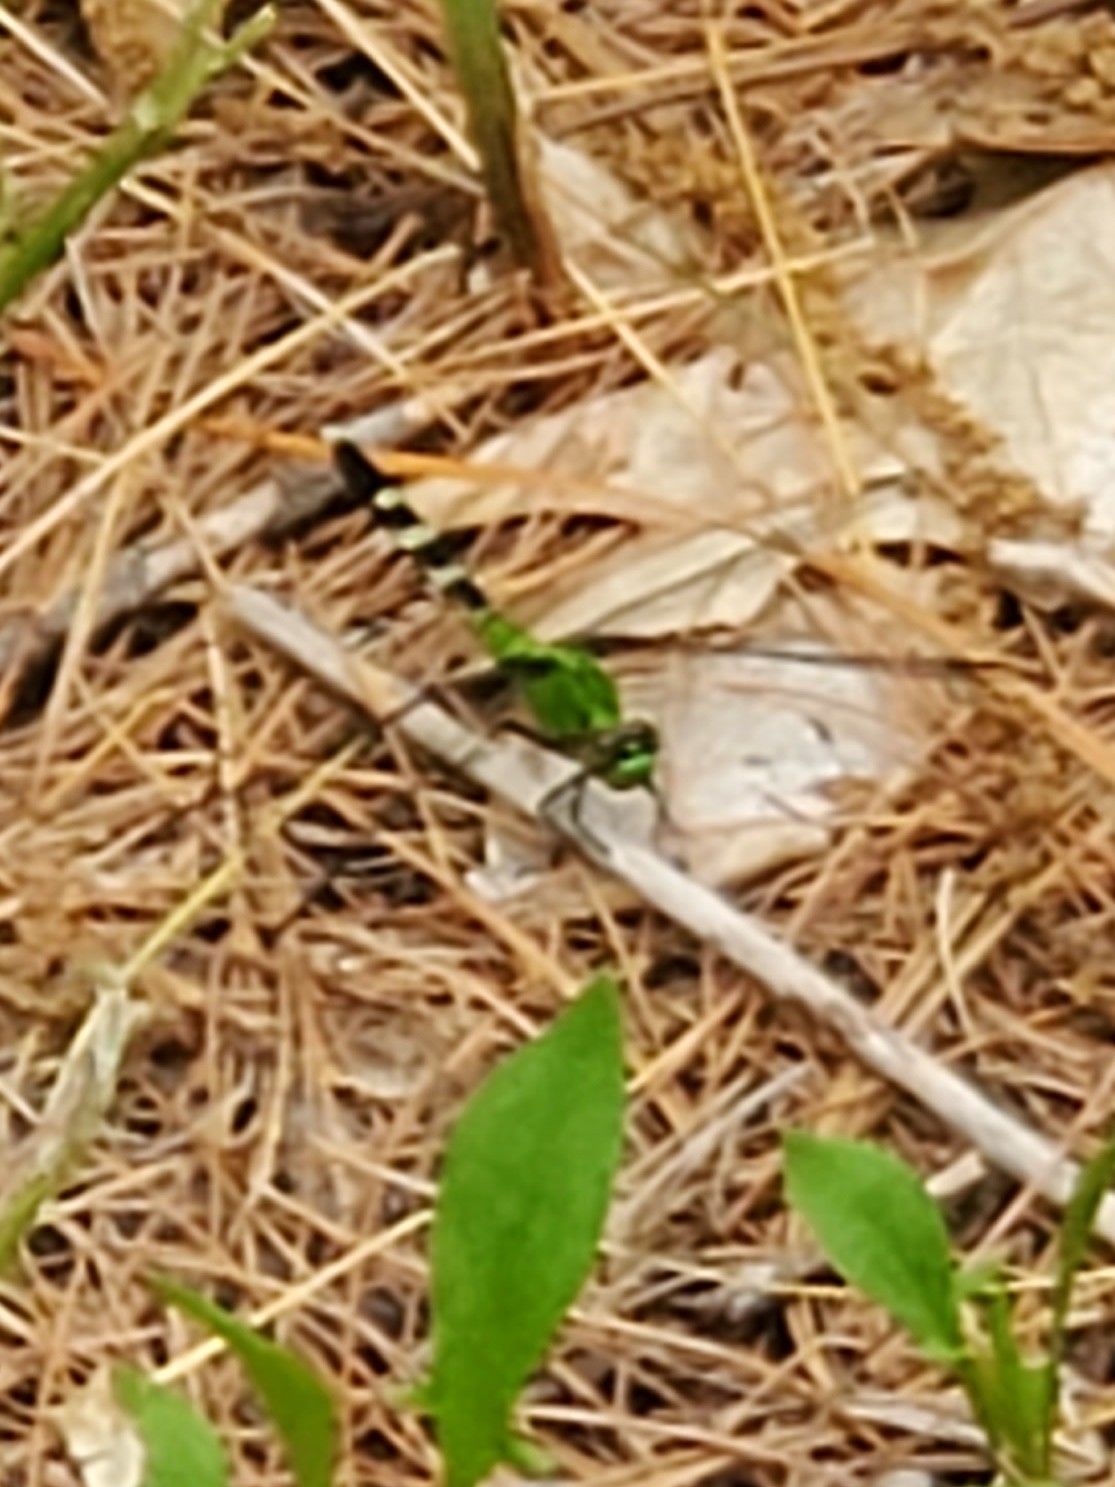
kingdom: Animalia
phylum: Arthropoda
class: Insecta
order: Odonata
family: Libellulidae
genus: Erythemis
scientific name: Erythemis simplicicollis
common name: Eastern pondhawk
